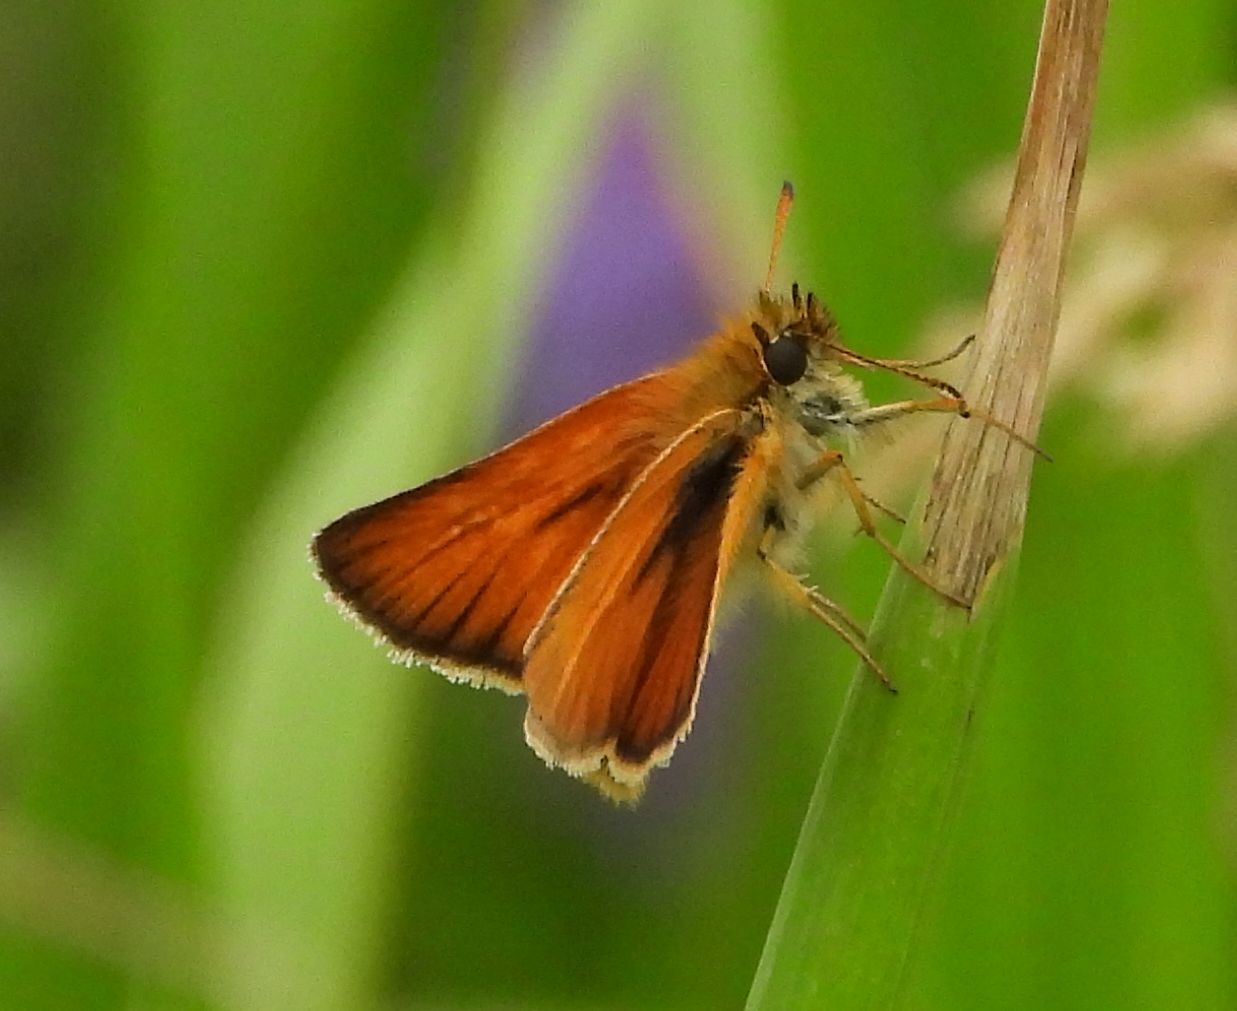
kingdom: Animalia
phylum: Arthropoda
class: Insecta
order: Lepidoptera
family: Hesperiidae
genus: Thymelicus
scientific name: Thymelicus lineola
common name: Essex skipper
